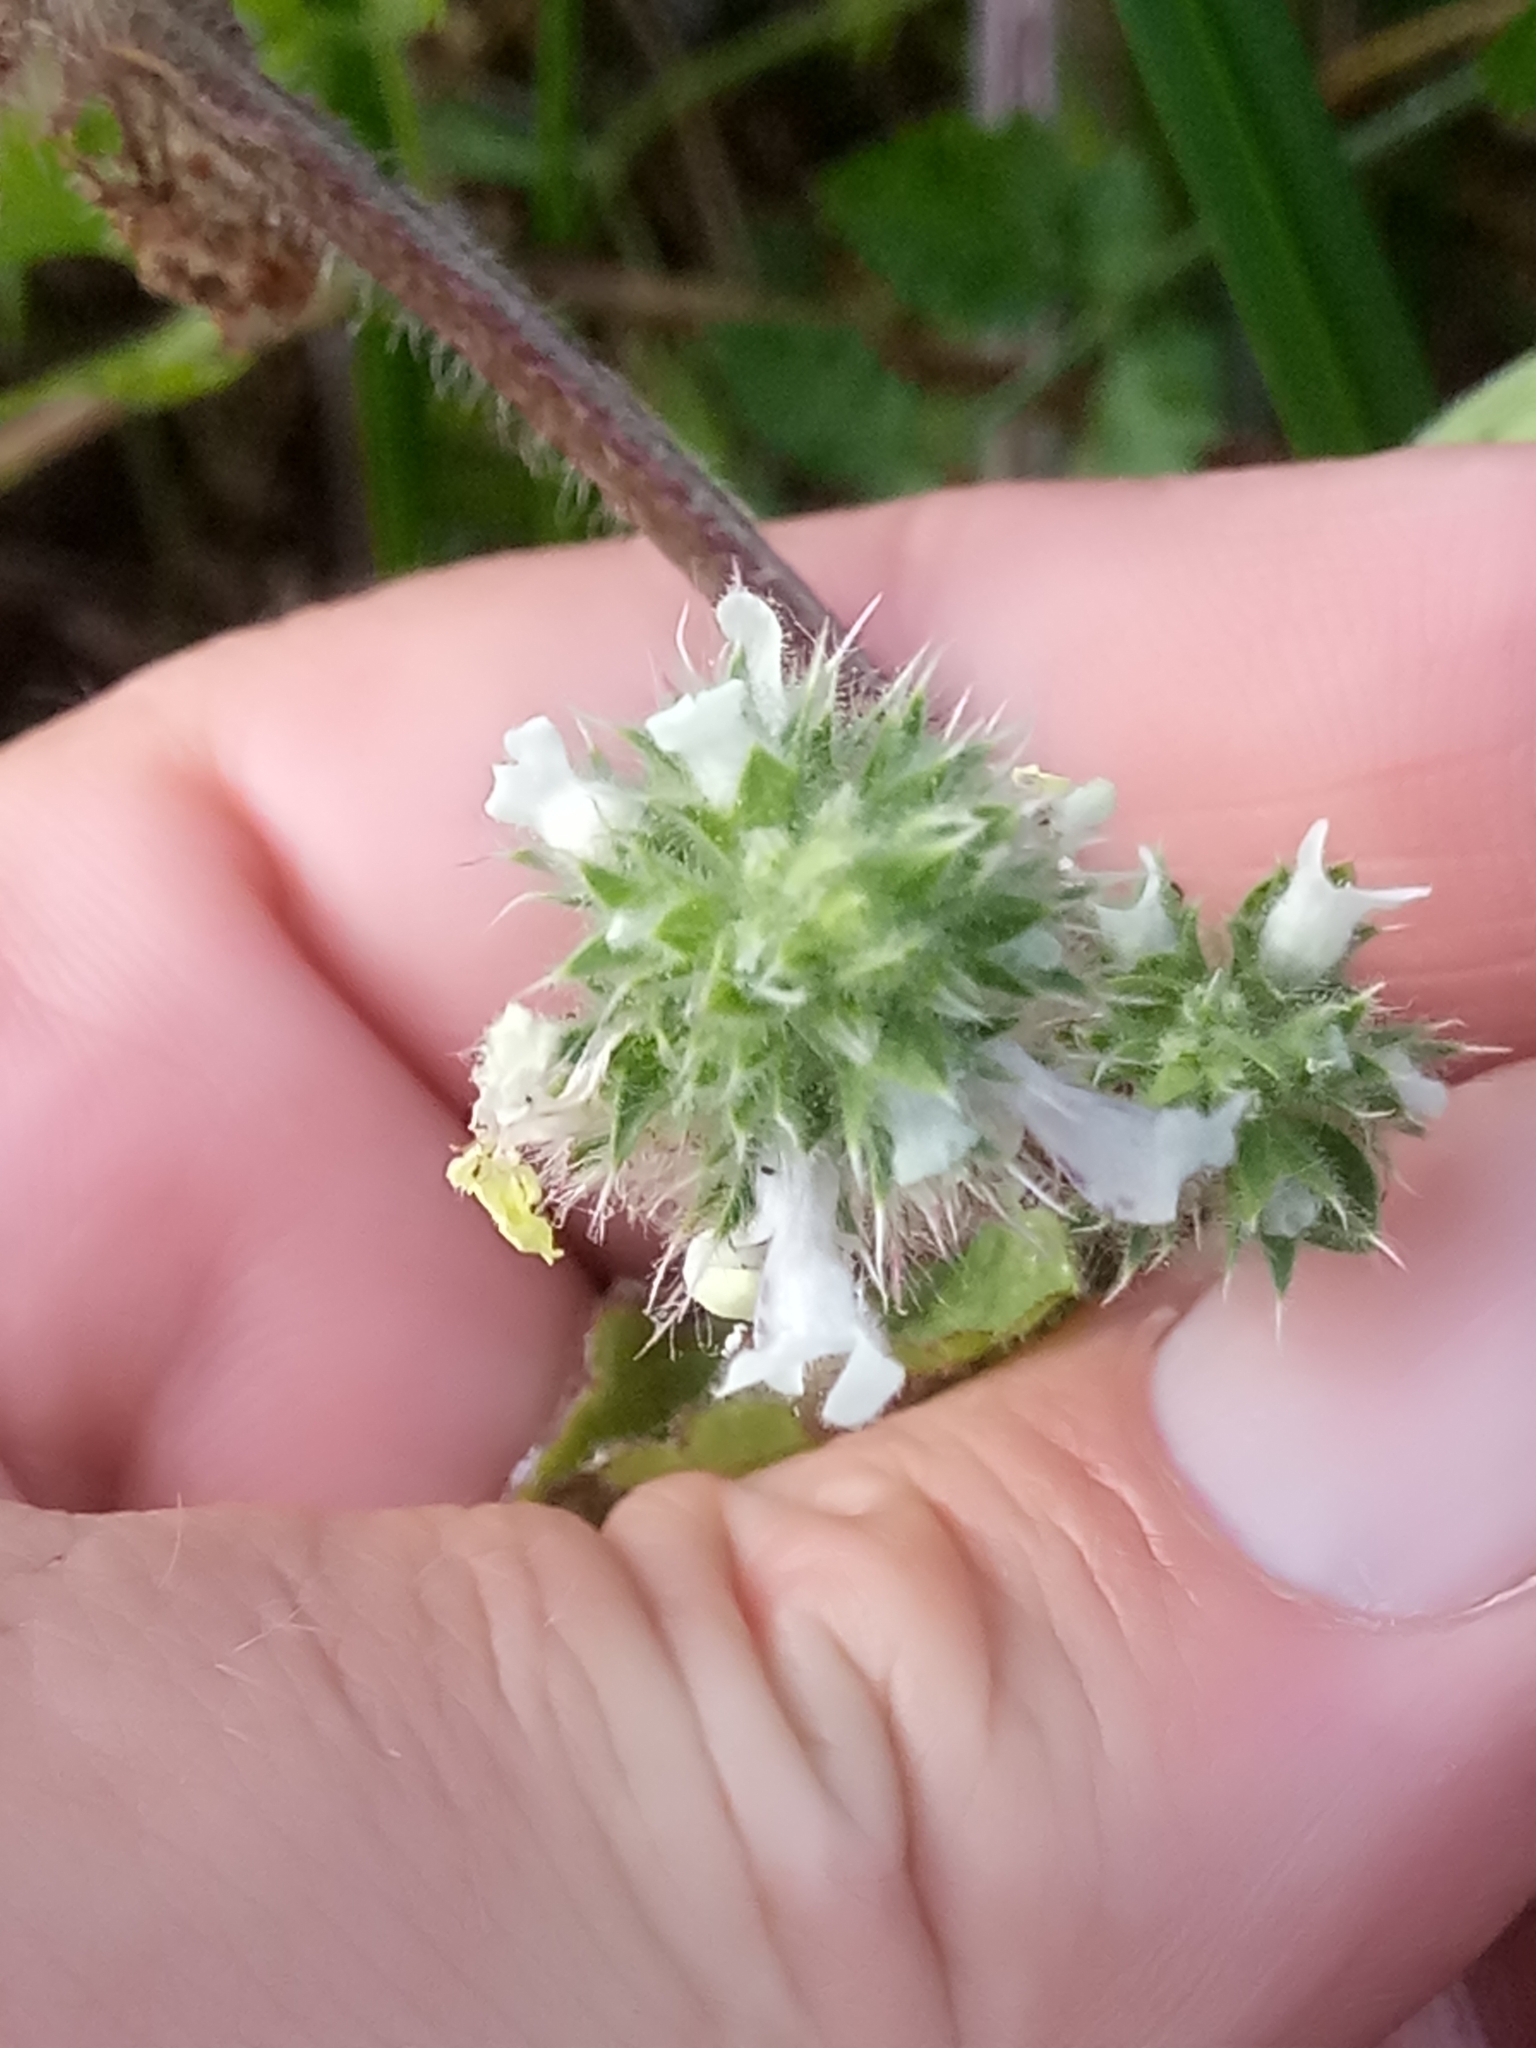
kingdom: Plantae
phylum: Tracheophyta
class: Magnoliopsida
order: Lamiales
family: Lamiaceae
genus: Stachys
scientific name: Stachys ocymastrum
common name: Italian hedgenettle
